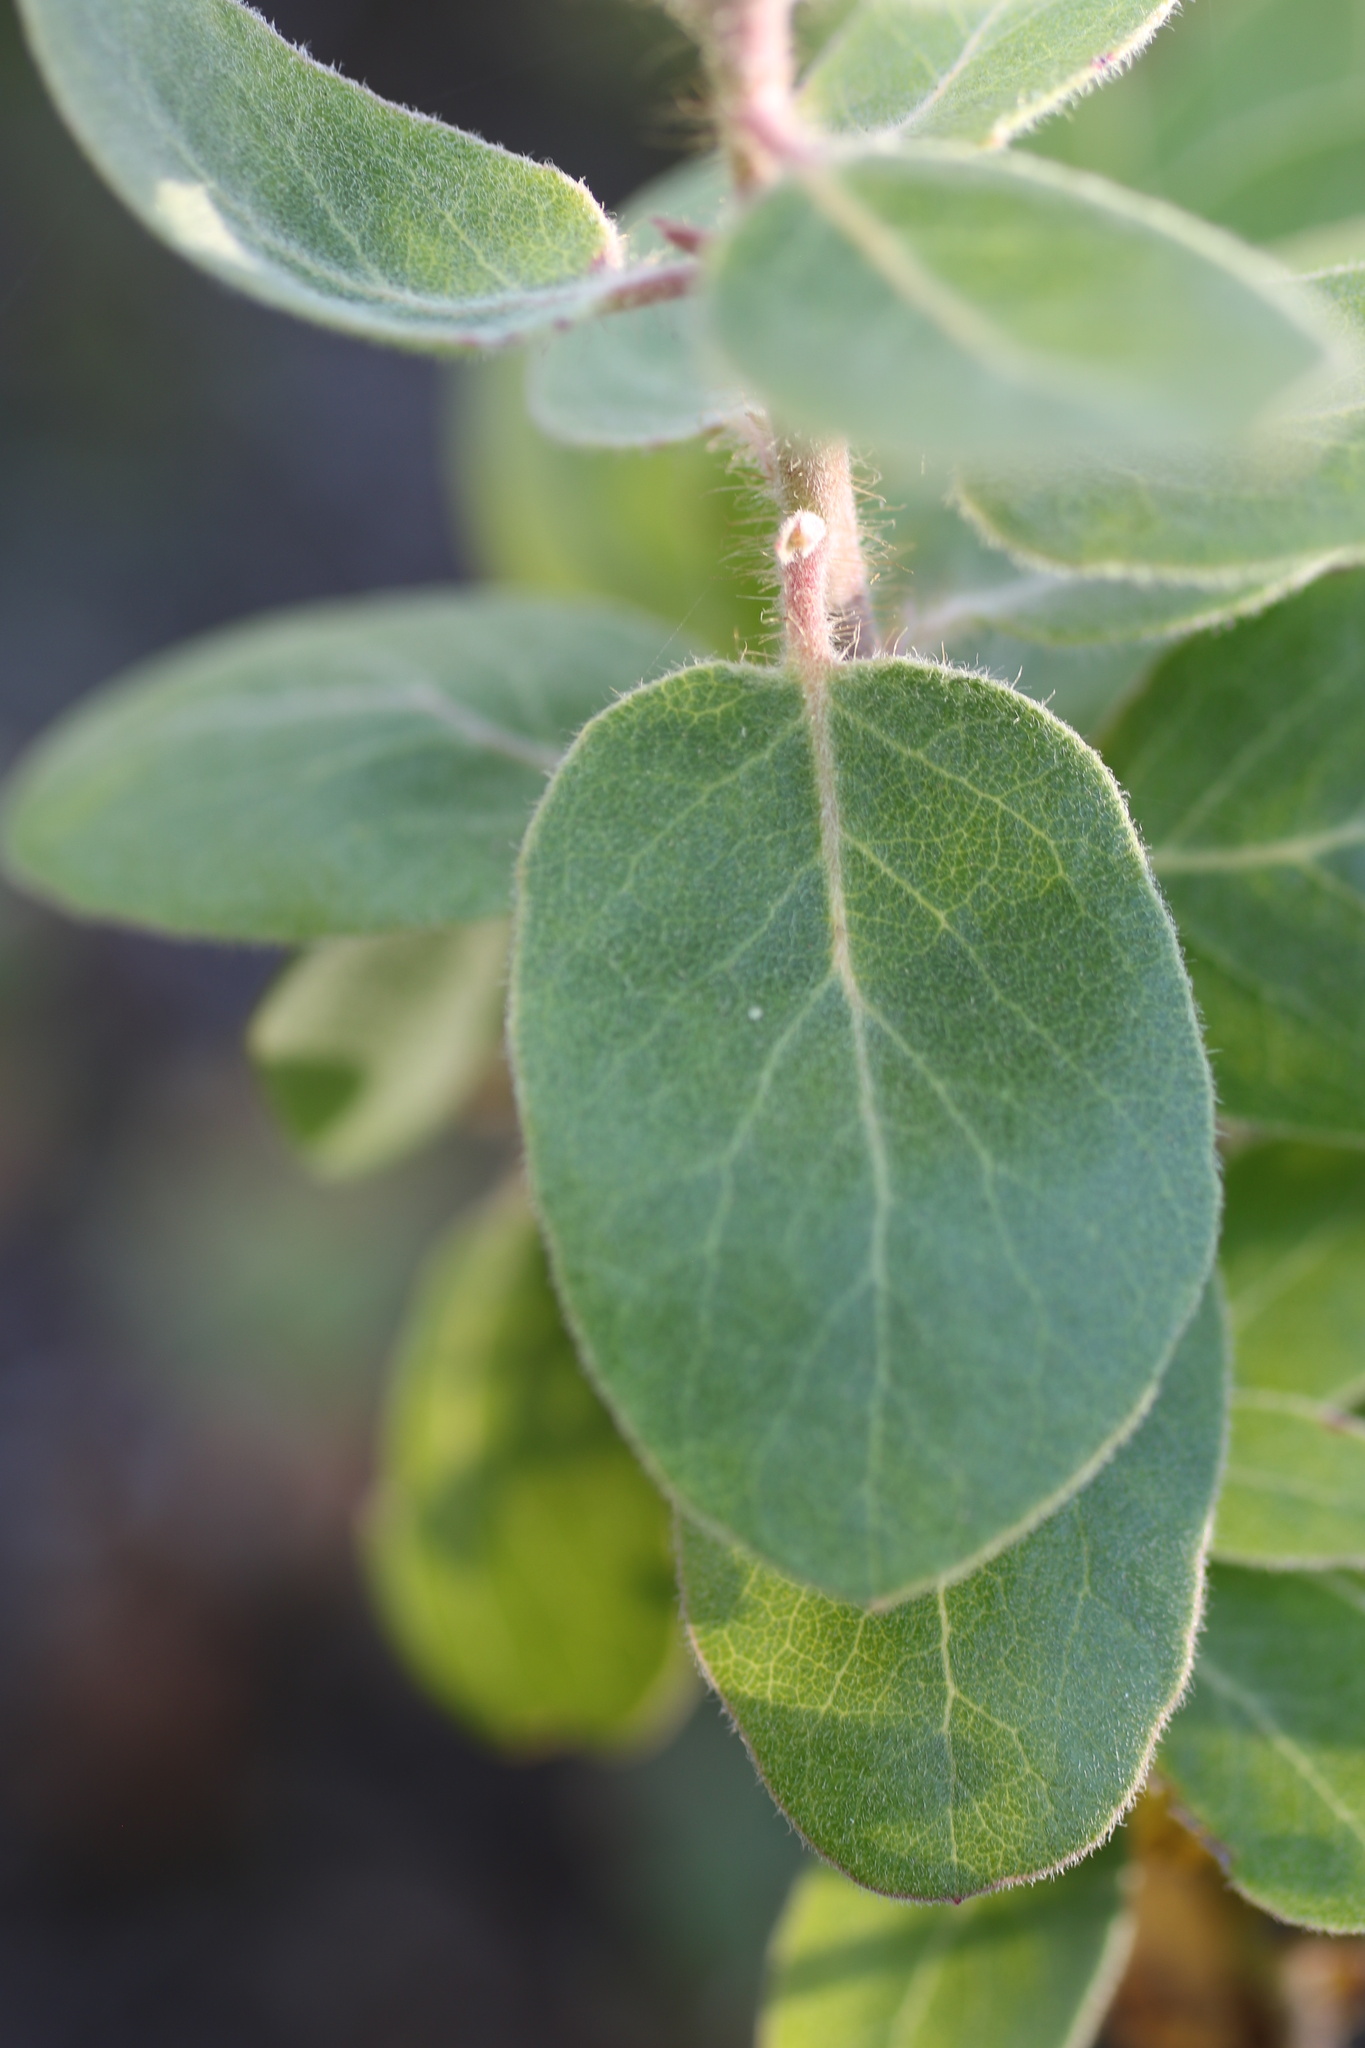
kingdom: Plantae
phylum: Tracheophyta
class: Magnoliopsida
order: Ericales
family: Ericaceae
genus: Arctostaphylos
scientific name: Arctostaphylos crustacea
